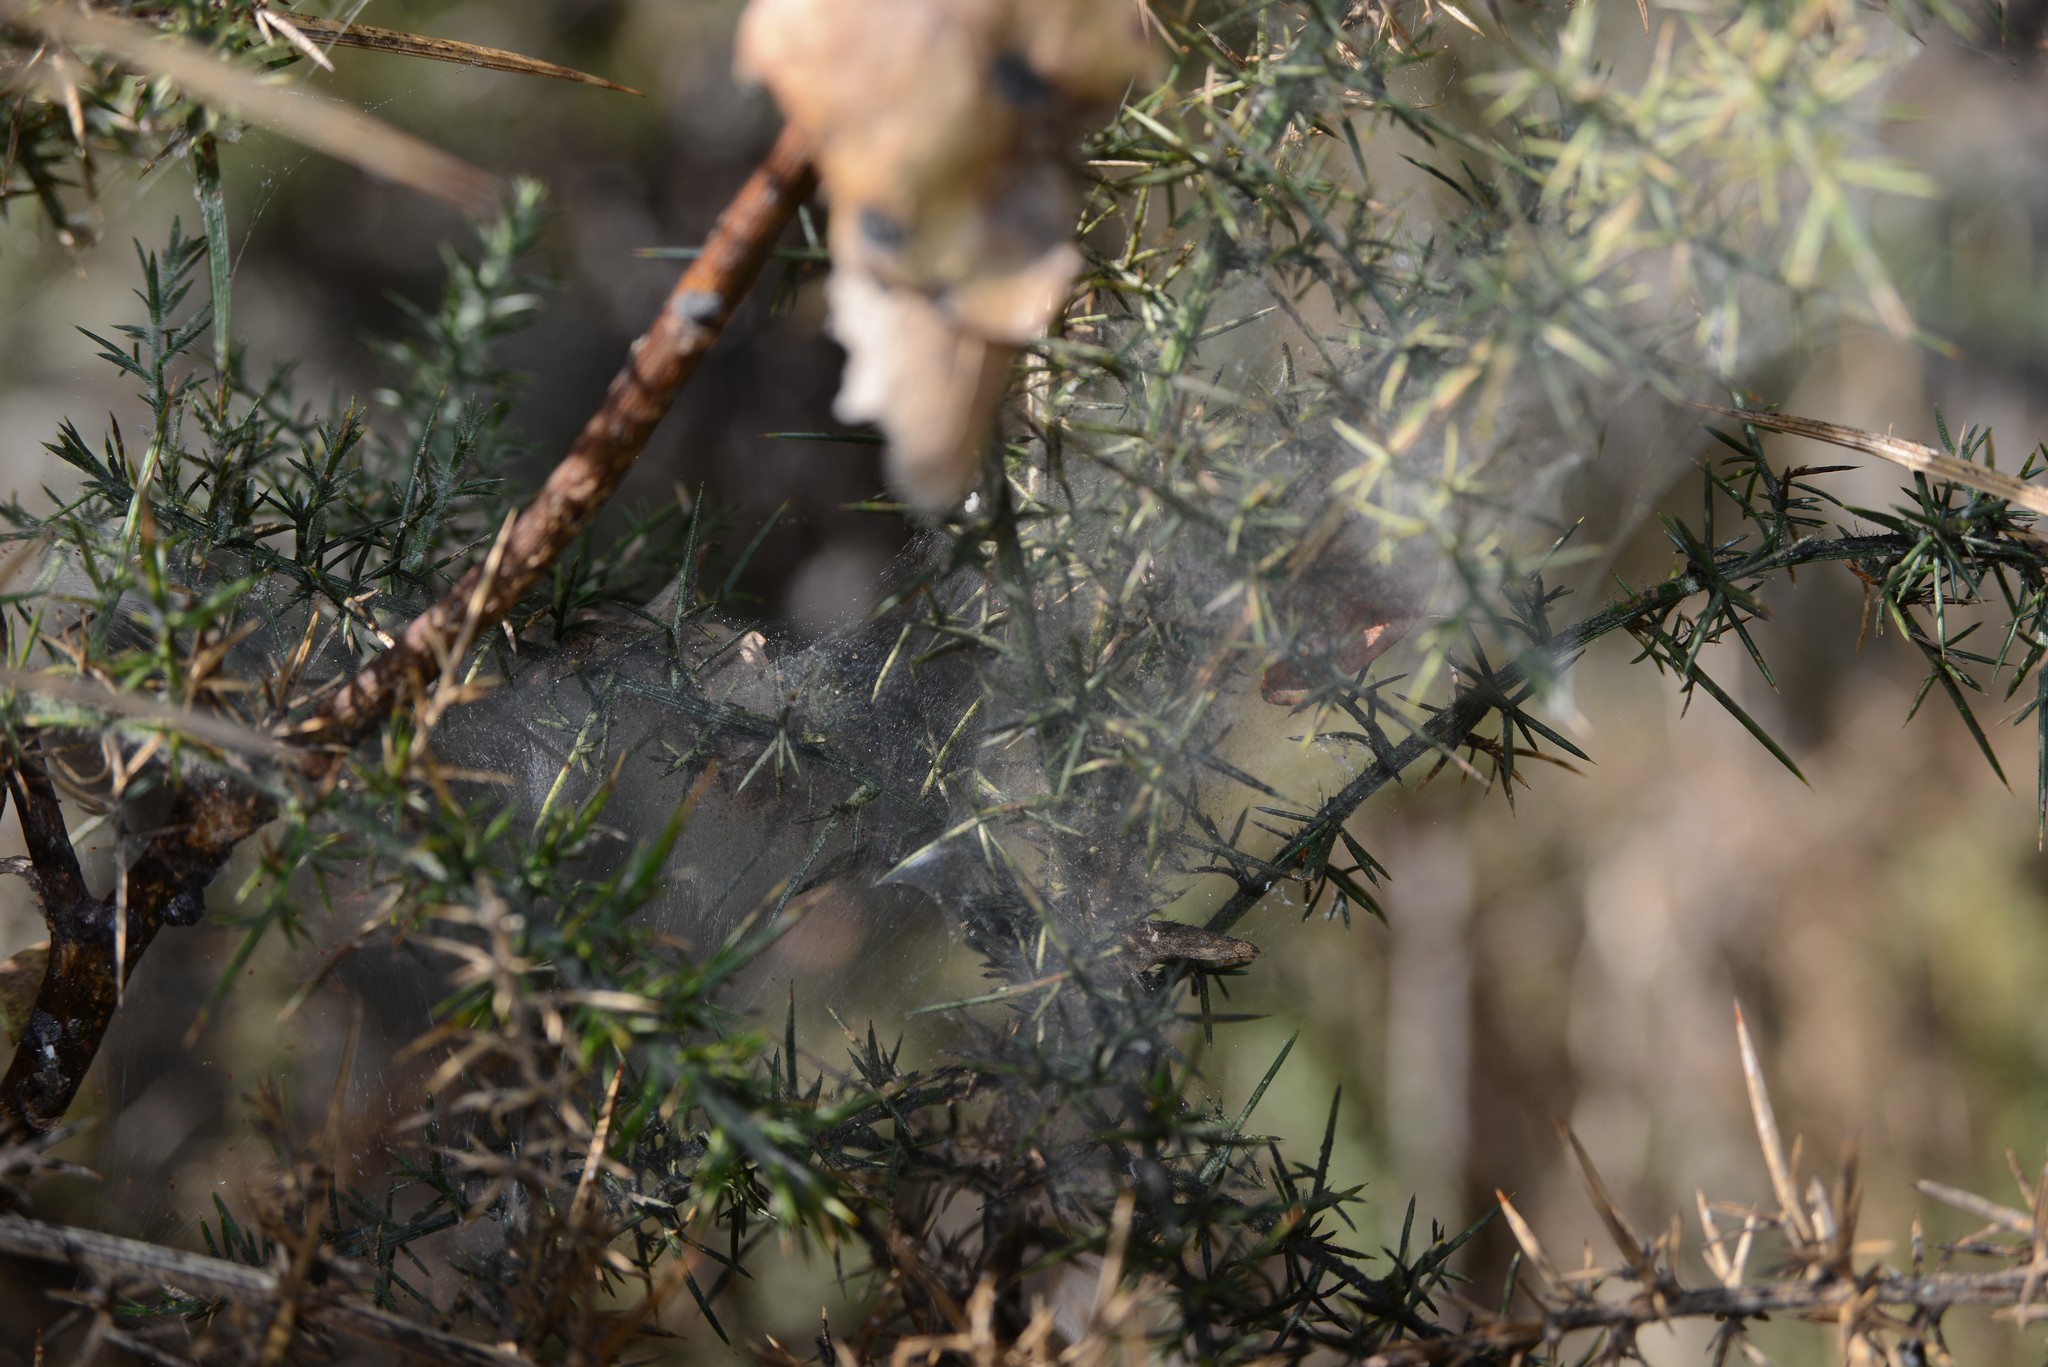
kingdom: Animalia
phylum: Arthropoda
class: Arachnida
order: Trombidiformes
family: Tetranychidae
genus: Tetranychus
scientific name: Tetranychus lintearius
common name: Gorse spider mite
